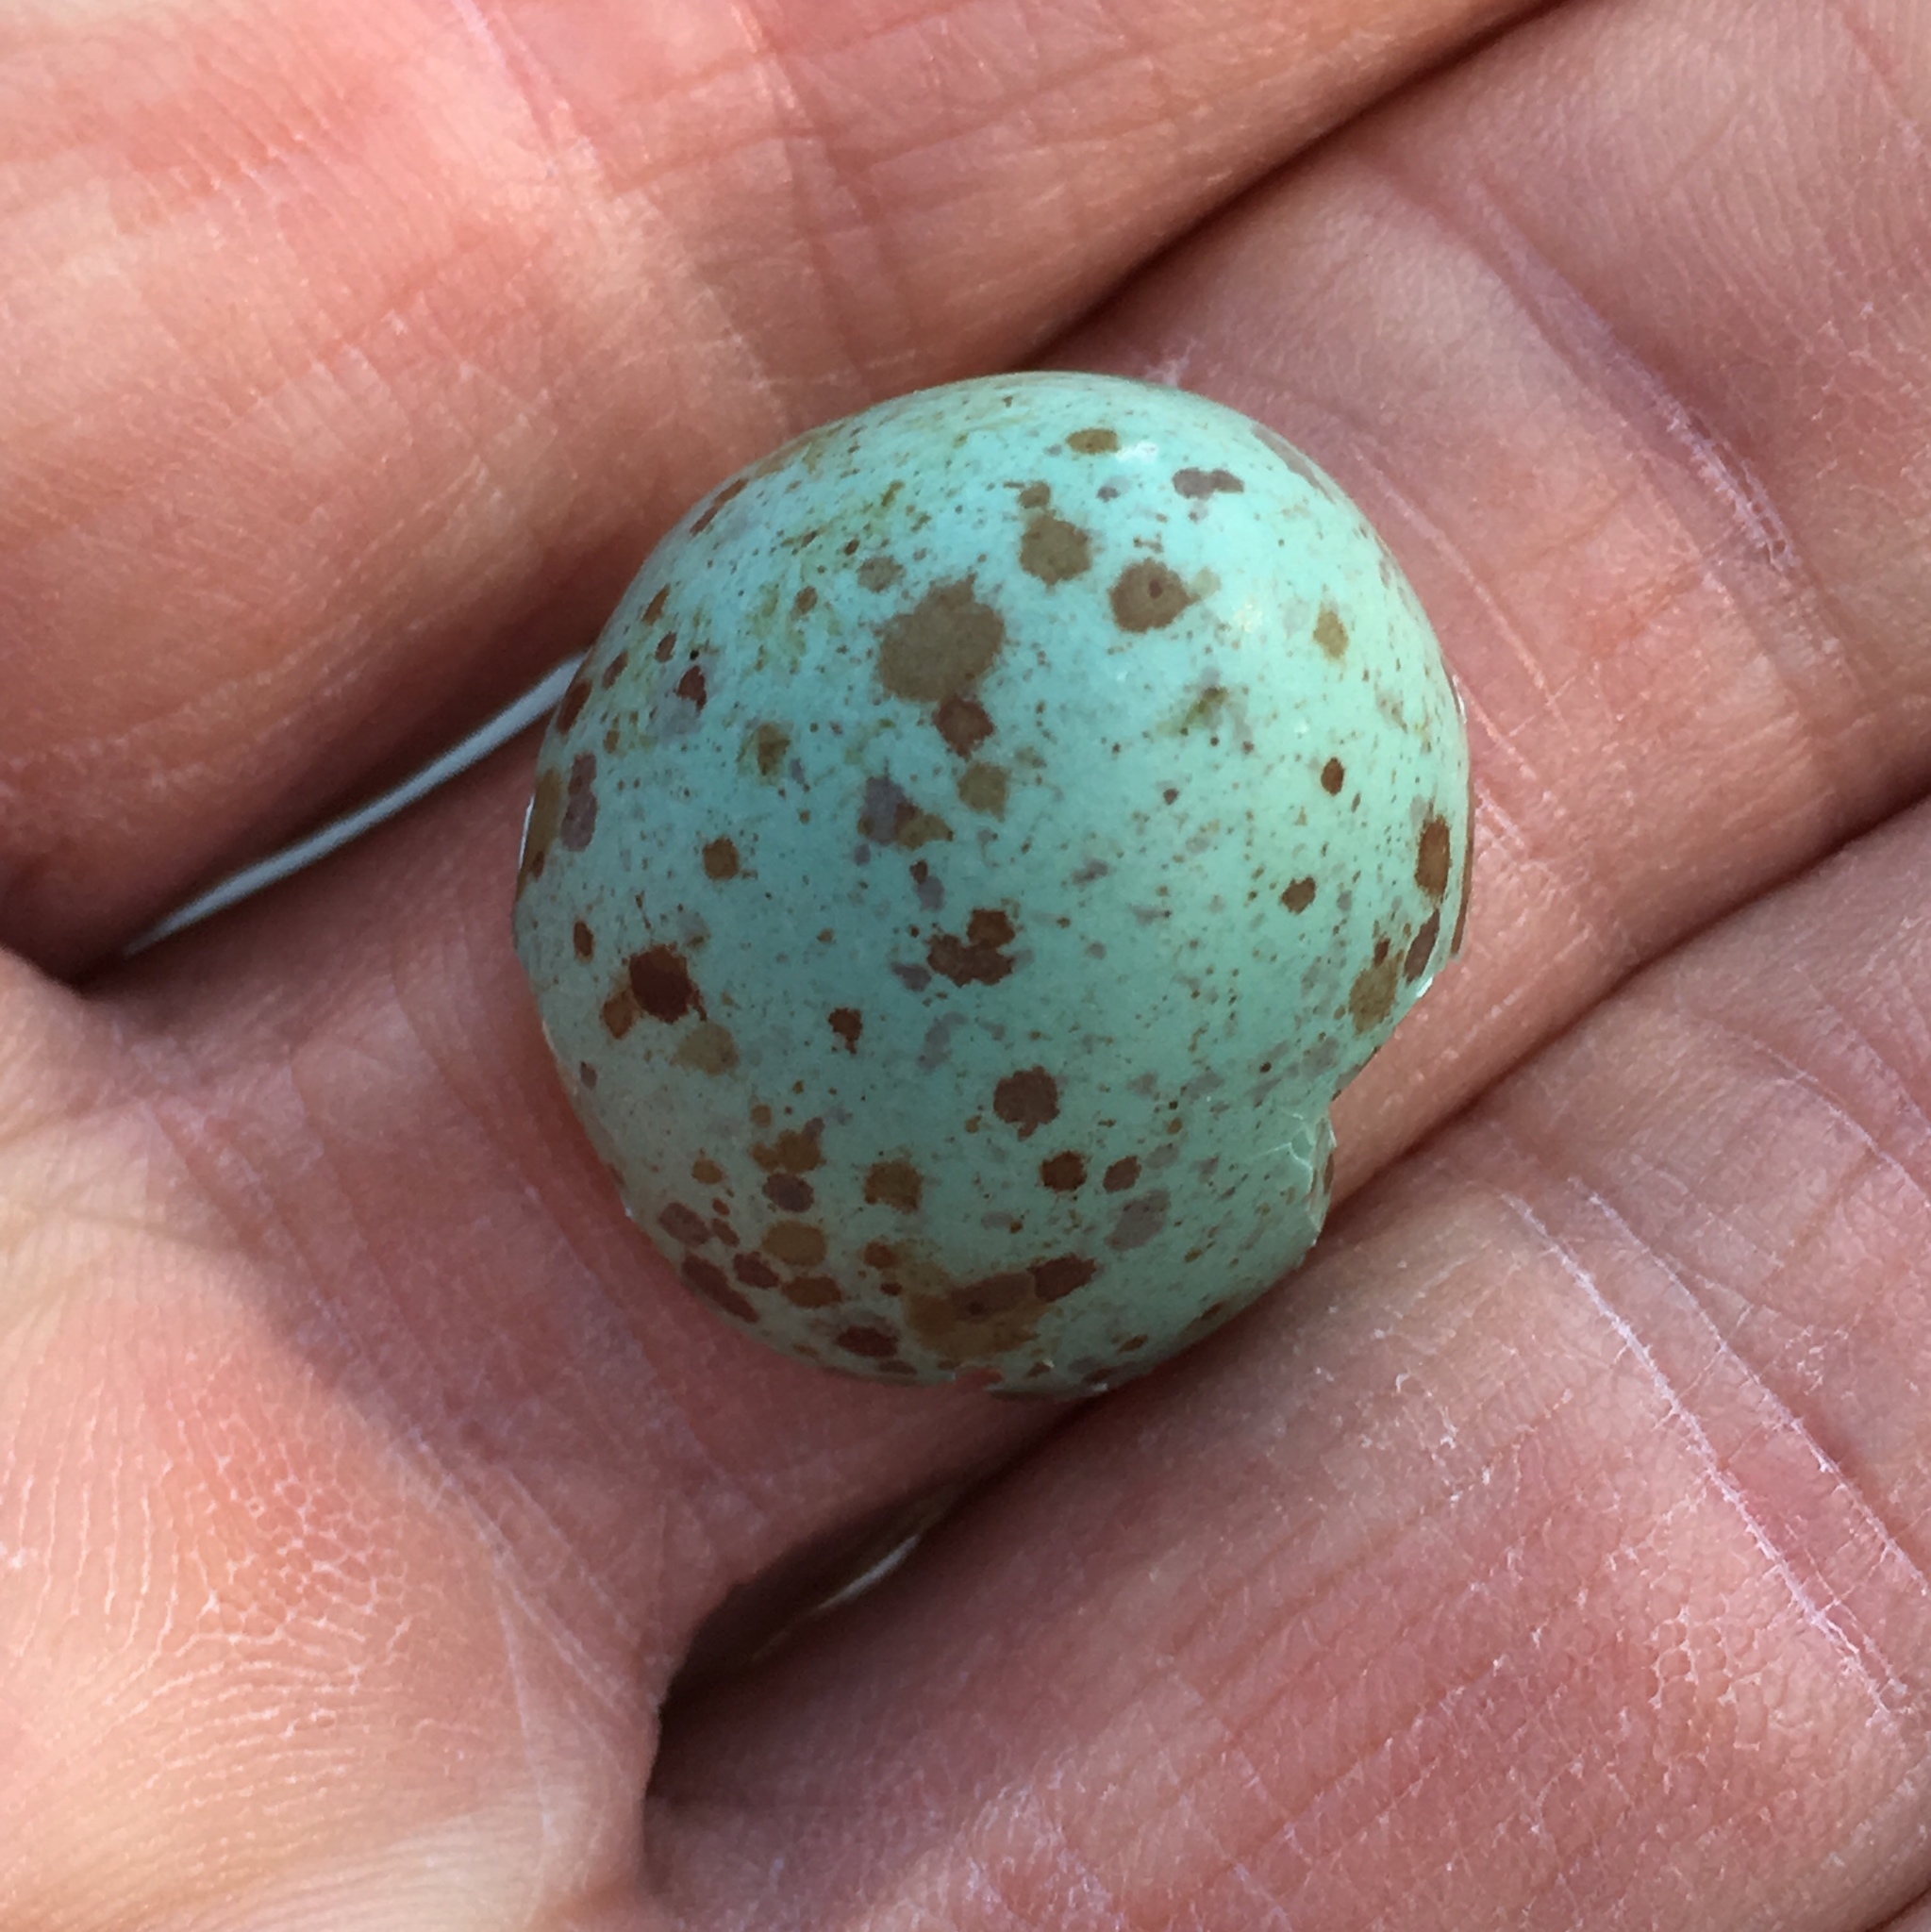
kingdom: Animalia
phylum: Chordata
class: Aves
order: Passeriformes
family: Mimidae
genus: Mimus
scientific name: Mimus polyglottos
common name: Northern mockingbird
